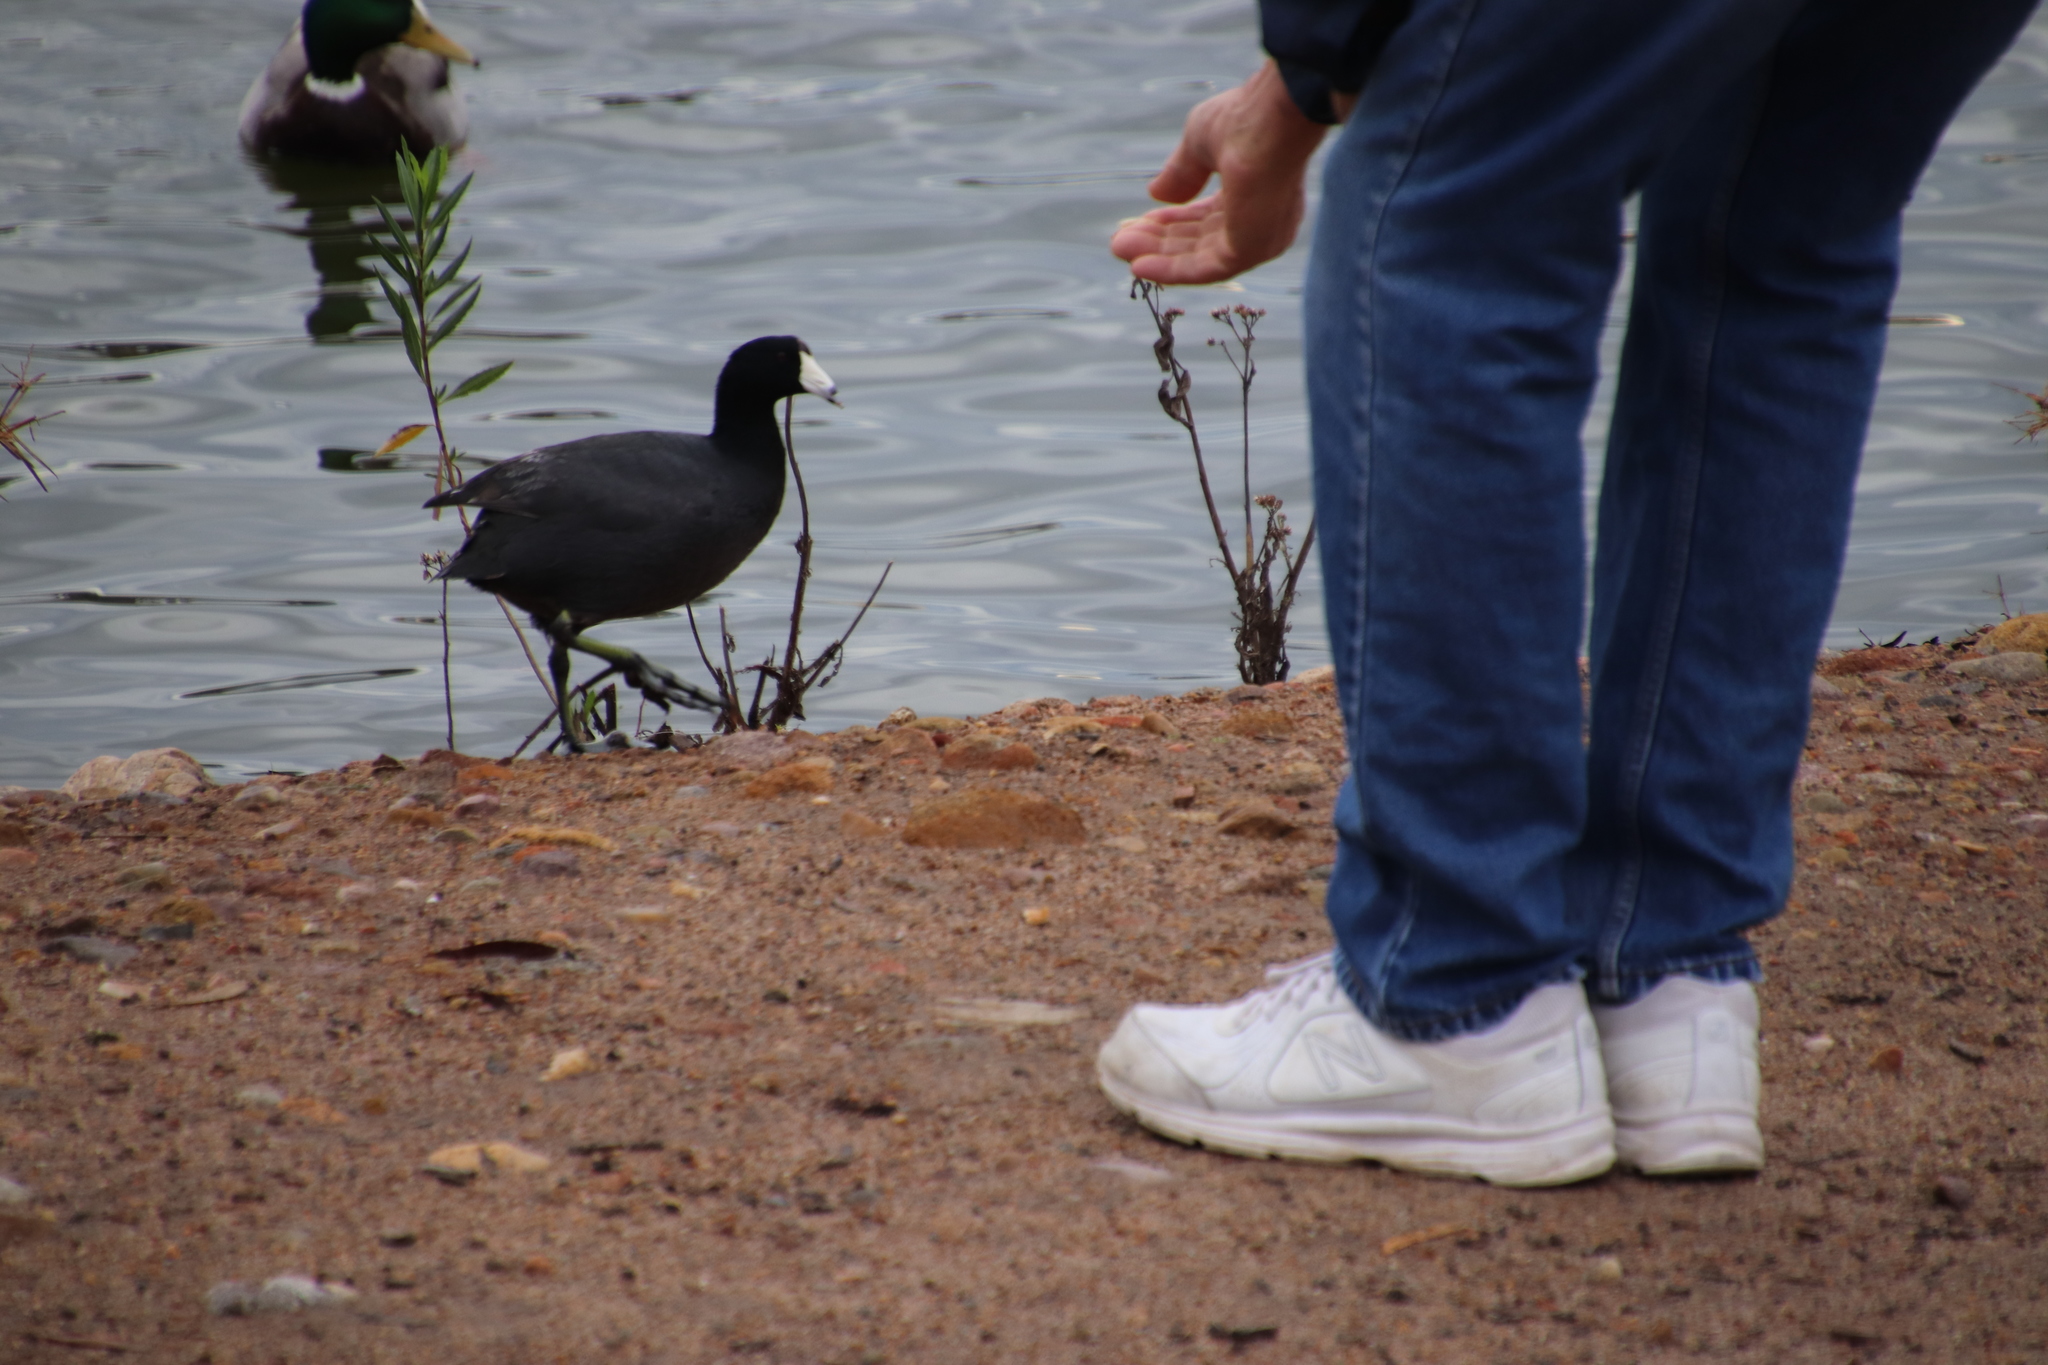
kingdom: Animalia
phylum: Chordata
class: Aves
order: Gruiformes
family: Rallidae
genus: Fulica
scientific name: Fulica americana
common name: American coot
